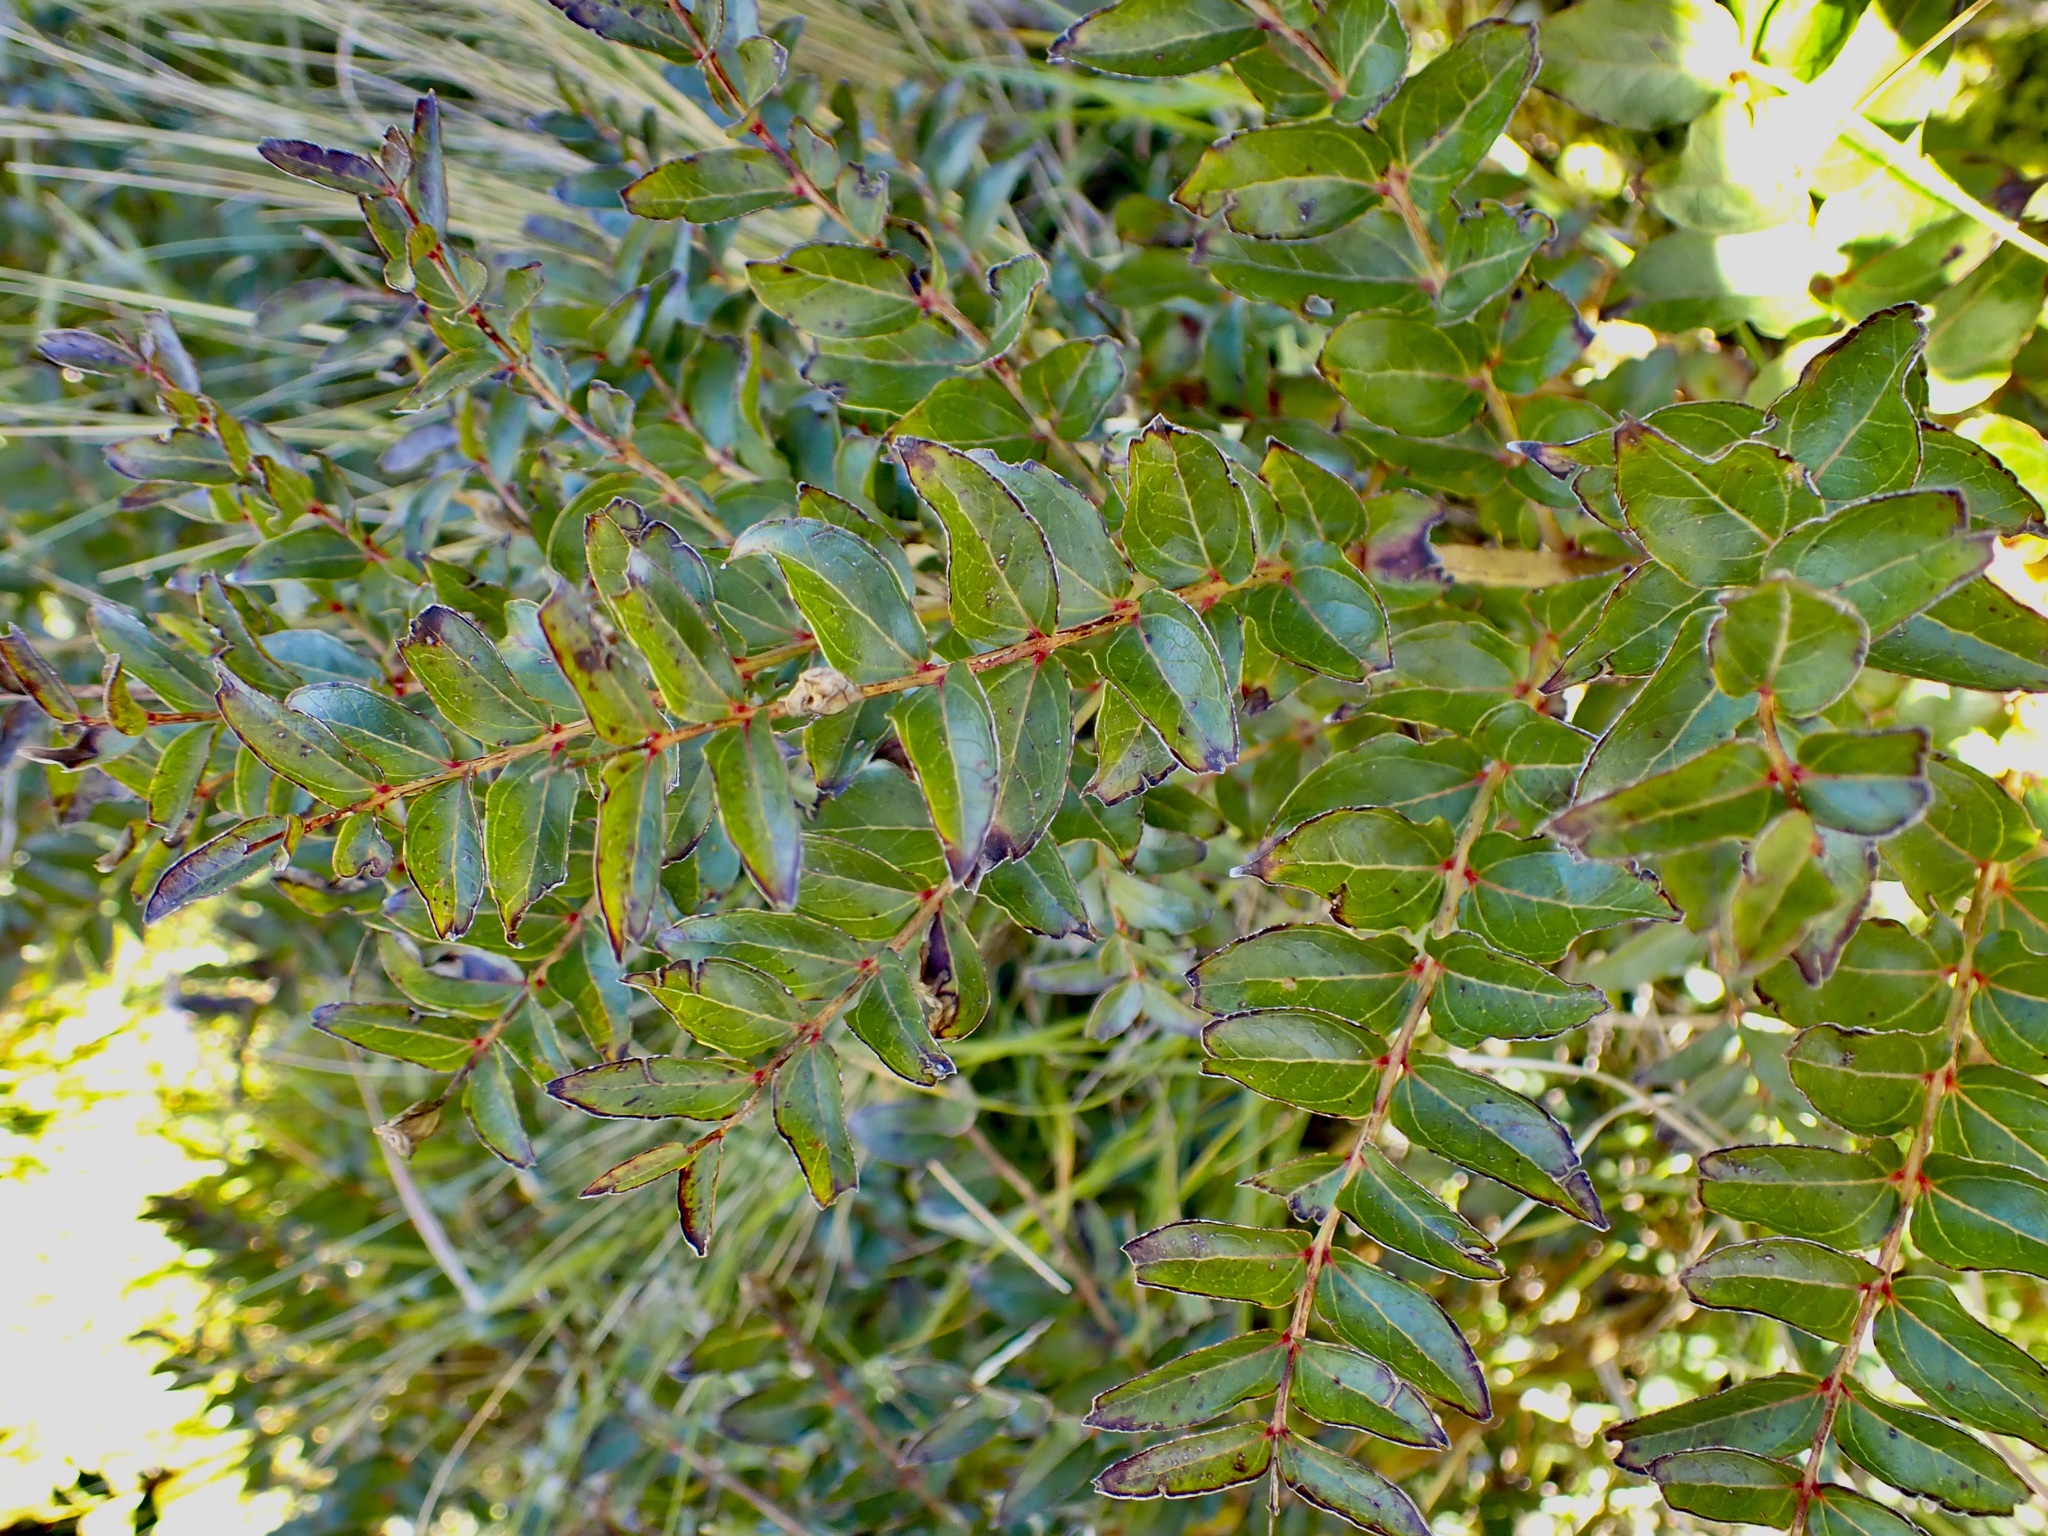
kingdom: Plantae
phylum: Tracheophyta
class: Magnoliopsida
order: Cucurbitales
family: Coriariaceae
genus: Coriaria
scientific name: Coriaria sarmentosa
